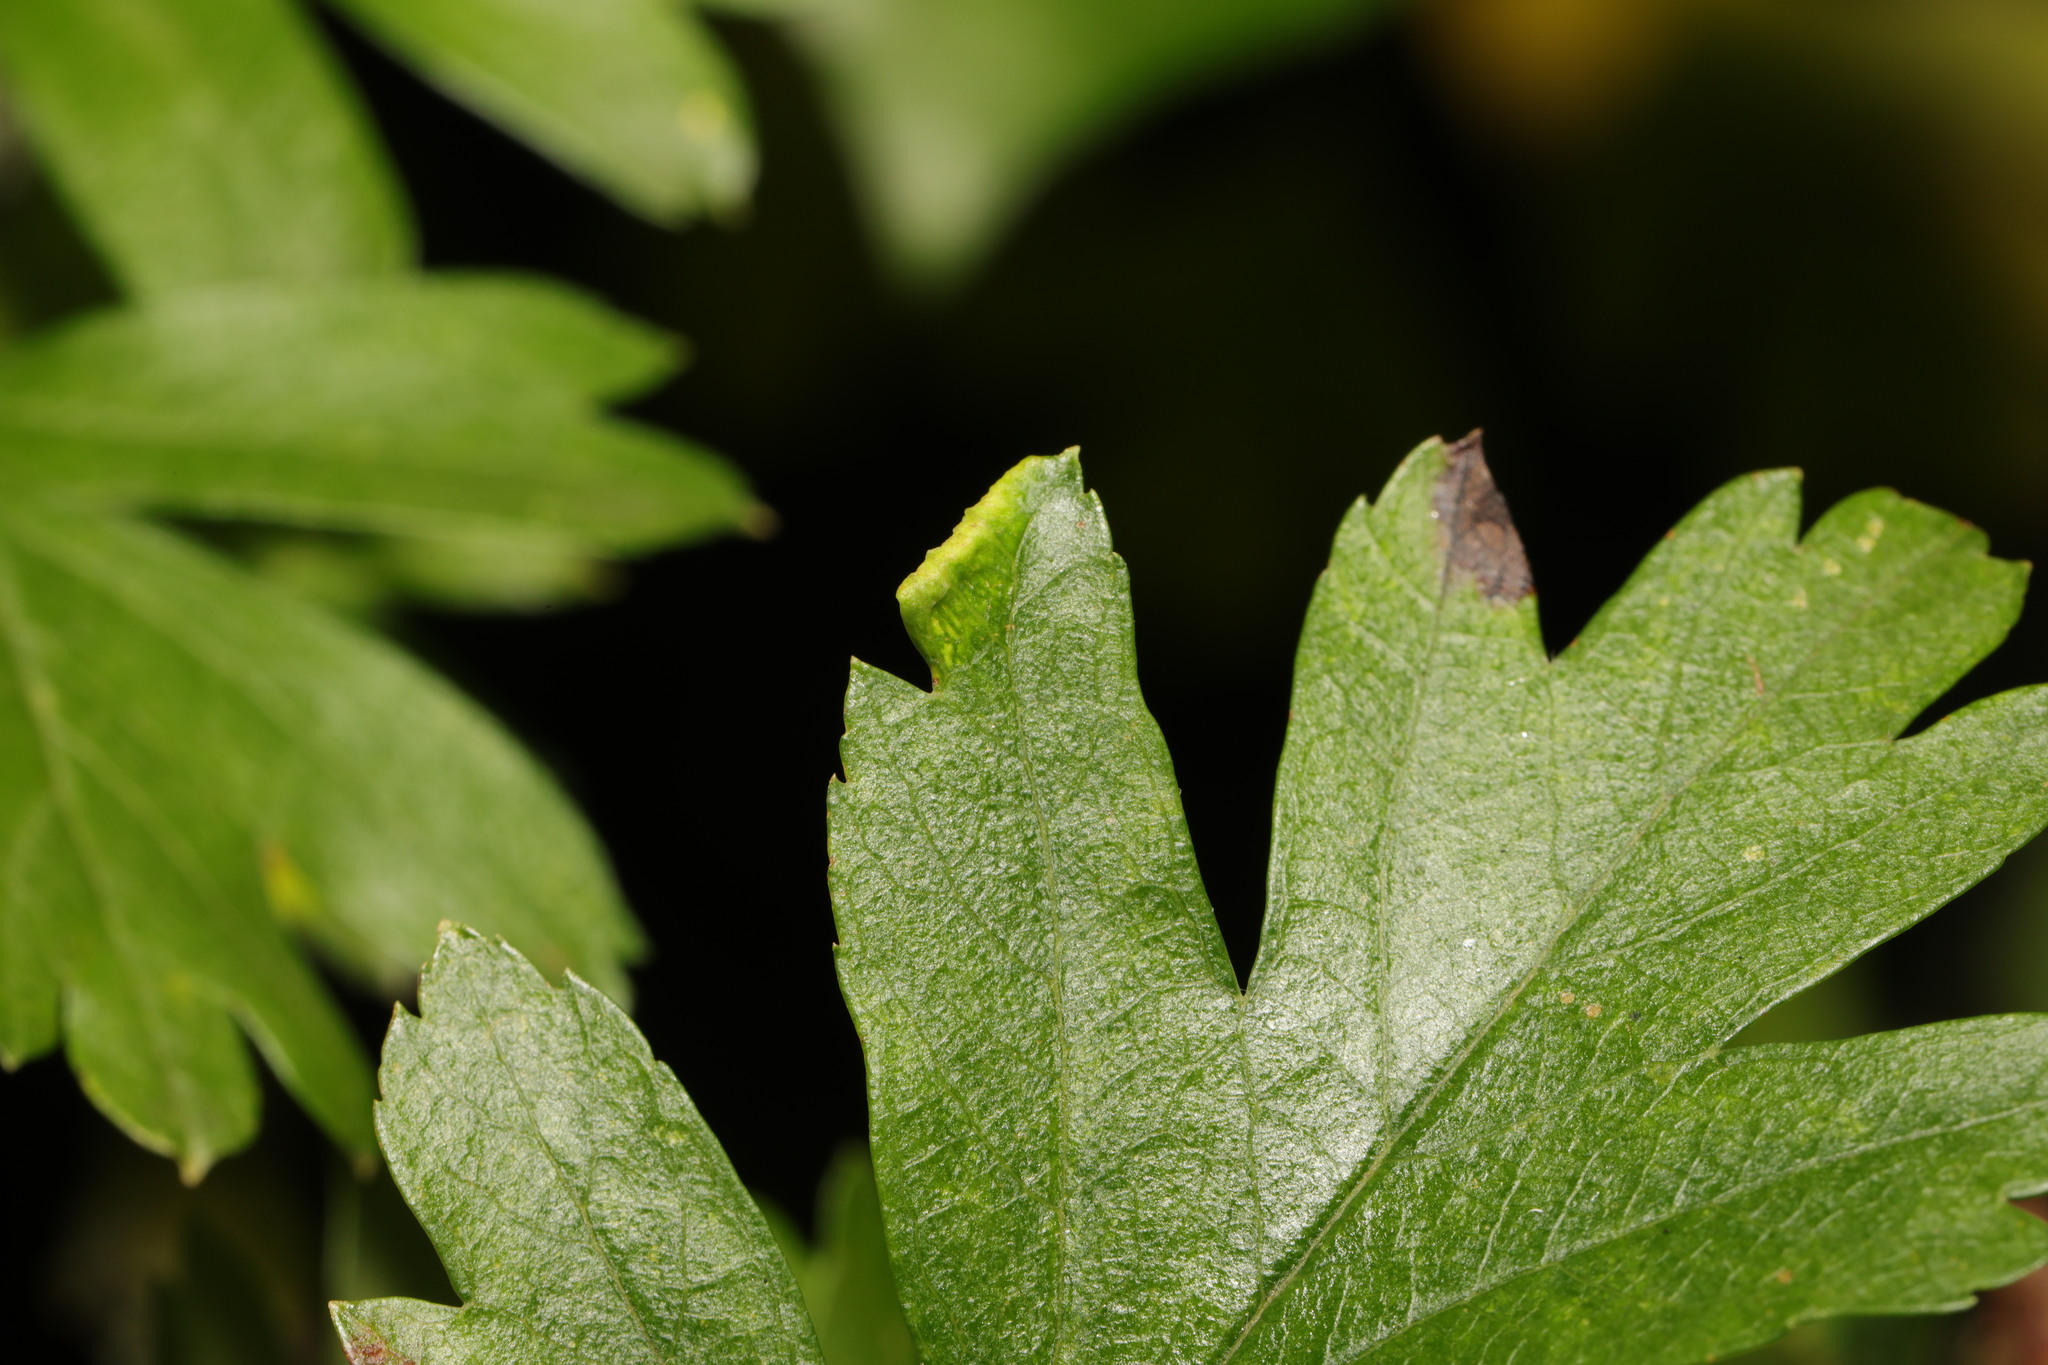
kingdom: Animalia
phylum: Arthropoda
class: Arachnida
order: Trombidiformes
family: Eriophyidae
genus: Phyllocoptes
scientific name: Phyllocoptes goniothorax
